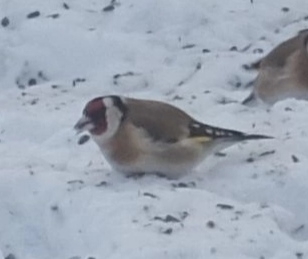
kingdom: Animalia
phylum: Chordata
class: Aves
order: Passeriformes
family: Fringillidae
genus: Carduelis
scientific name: Carduelis carduelis
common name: European goldfinch
